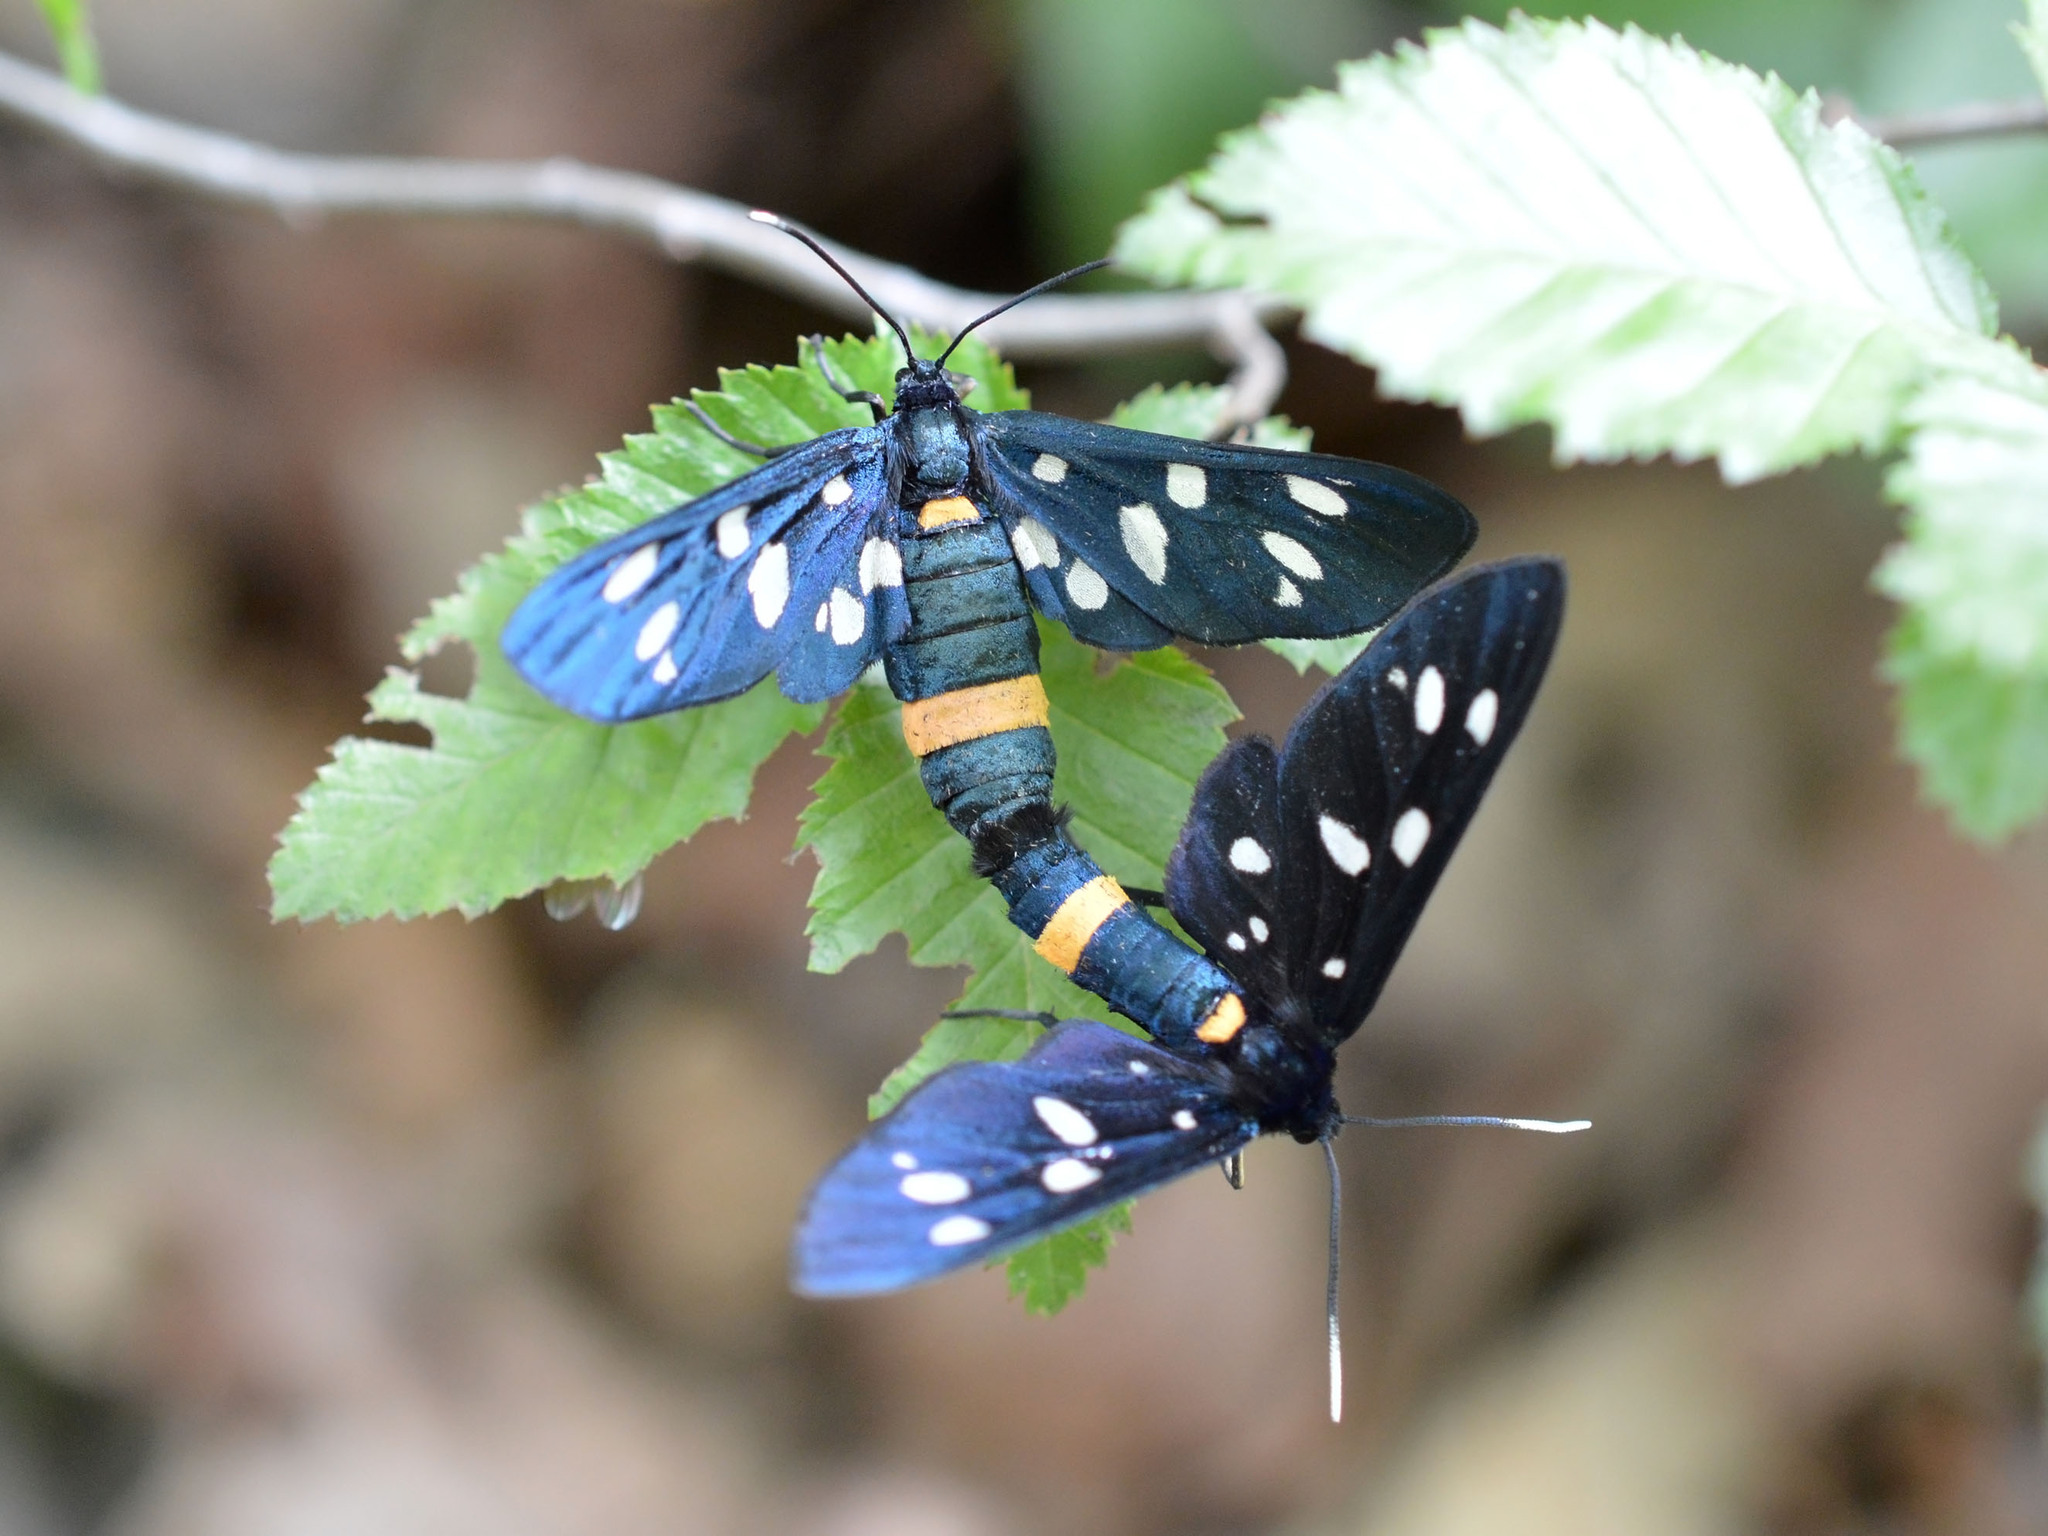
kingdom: Animalia
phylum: Arthropoda
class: Insecta
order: Lepidoptera
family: Erebidae
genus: Amata
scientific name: Amata phegea
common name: Nine-spotted
